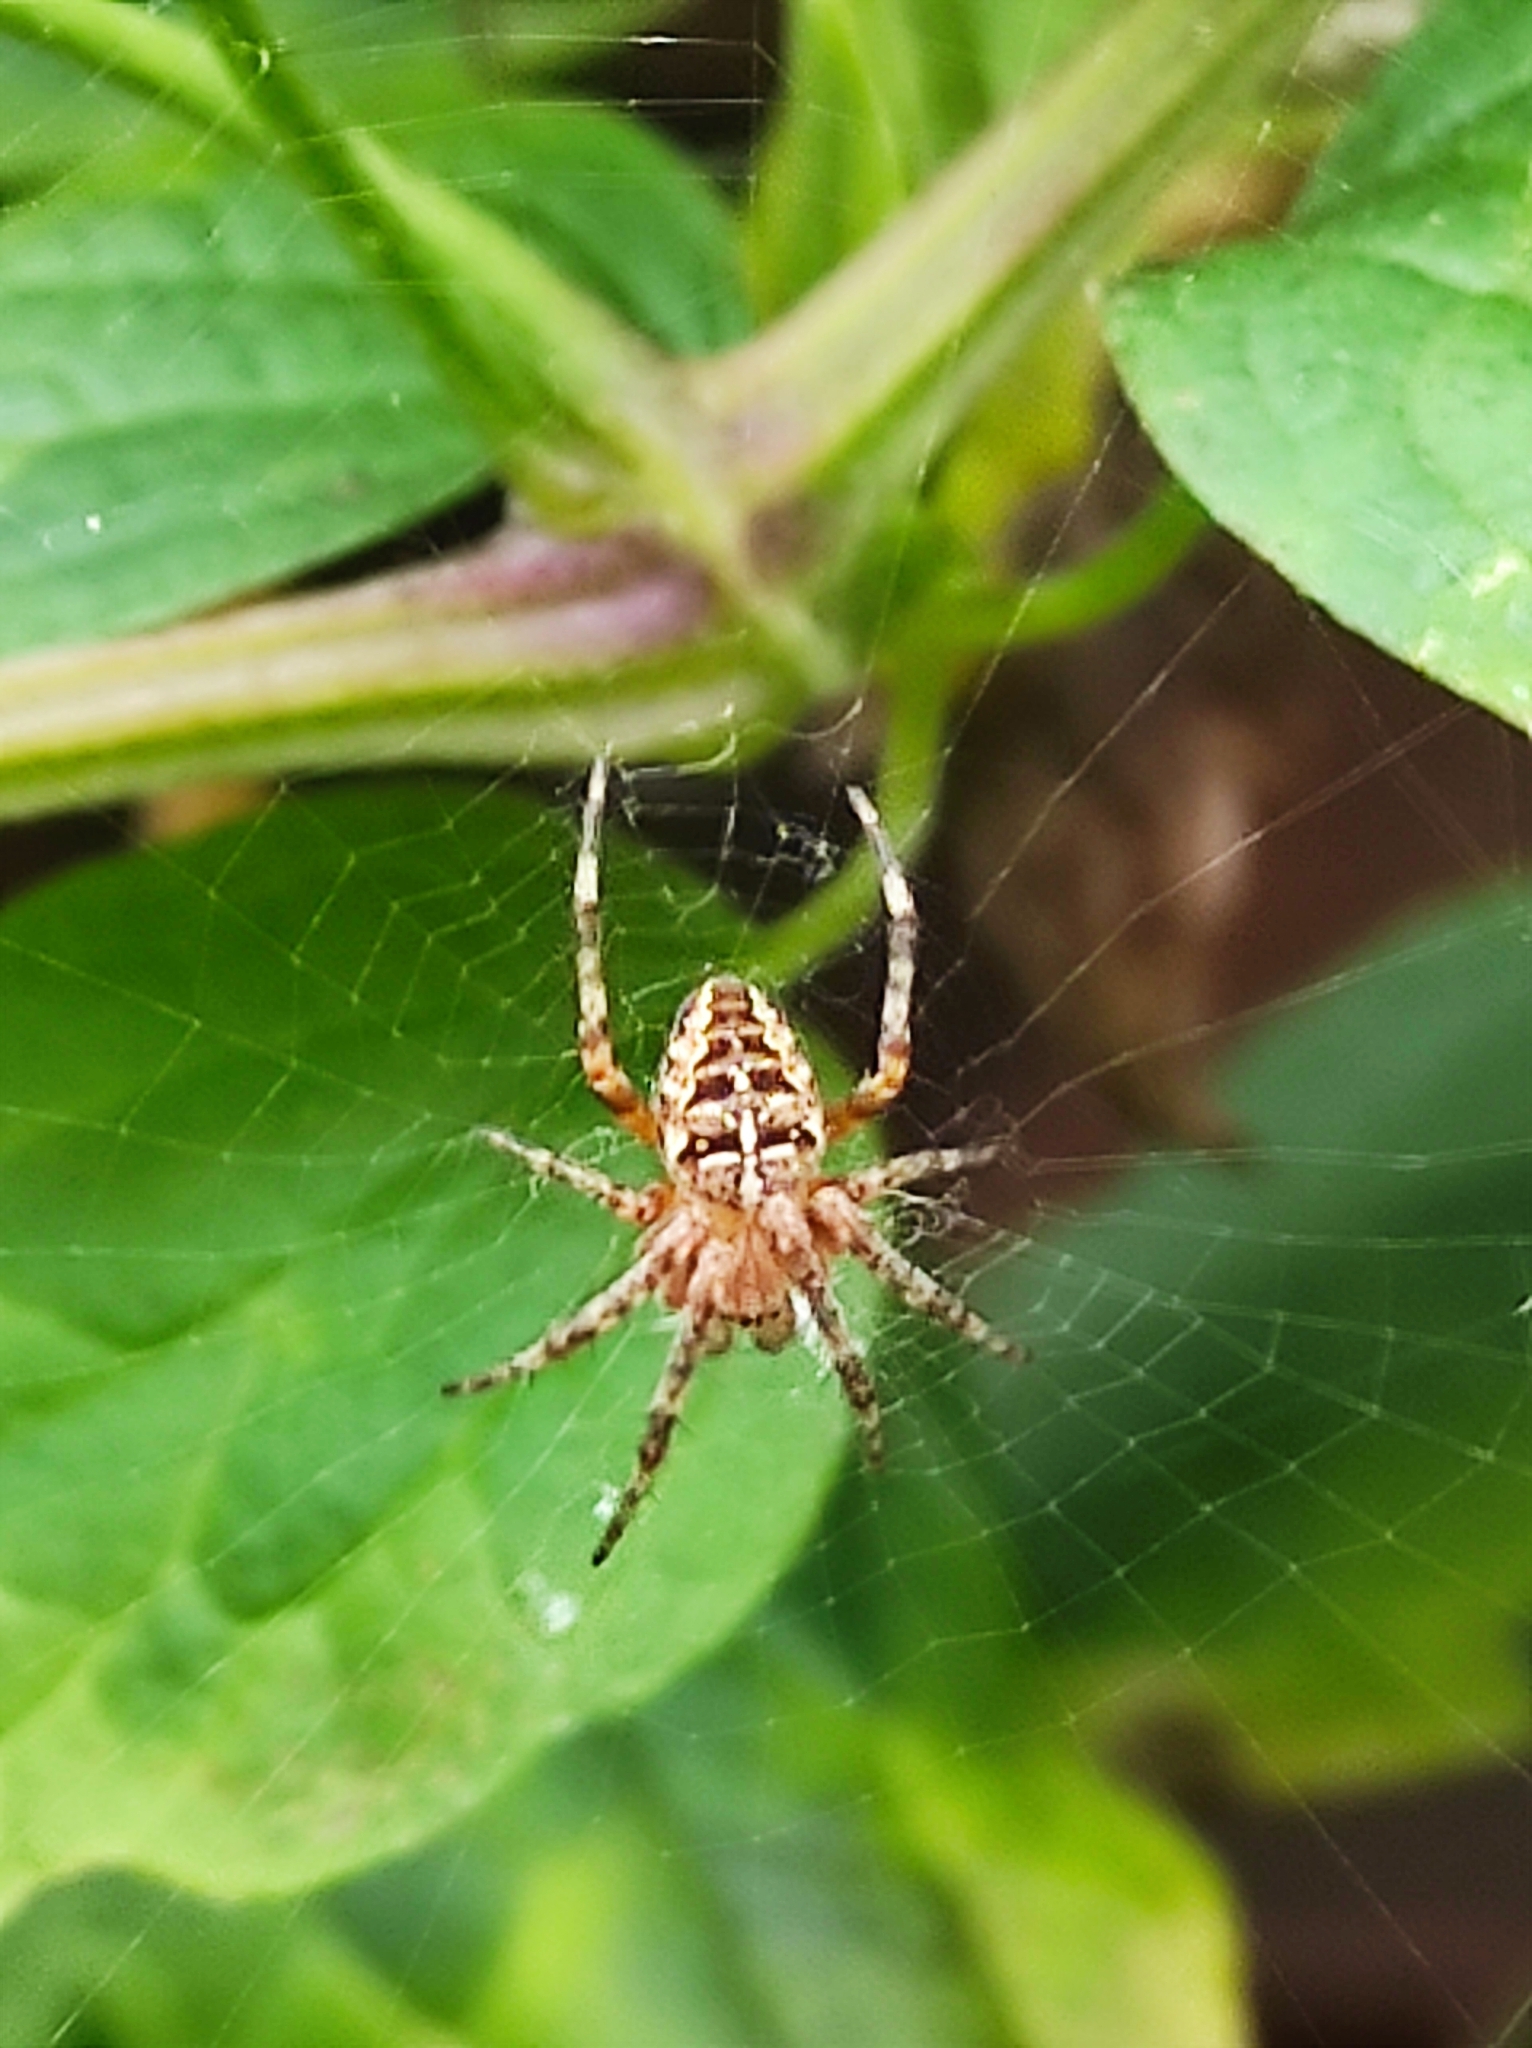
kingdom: Animalia
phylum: Arthropoda
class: Arachnida
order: Araneae
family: Araneidae
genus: Araneus
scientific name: Araneus diadematus
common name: Cross orbweaver
